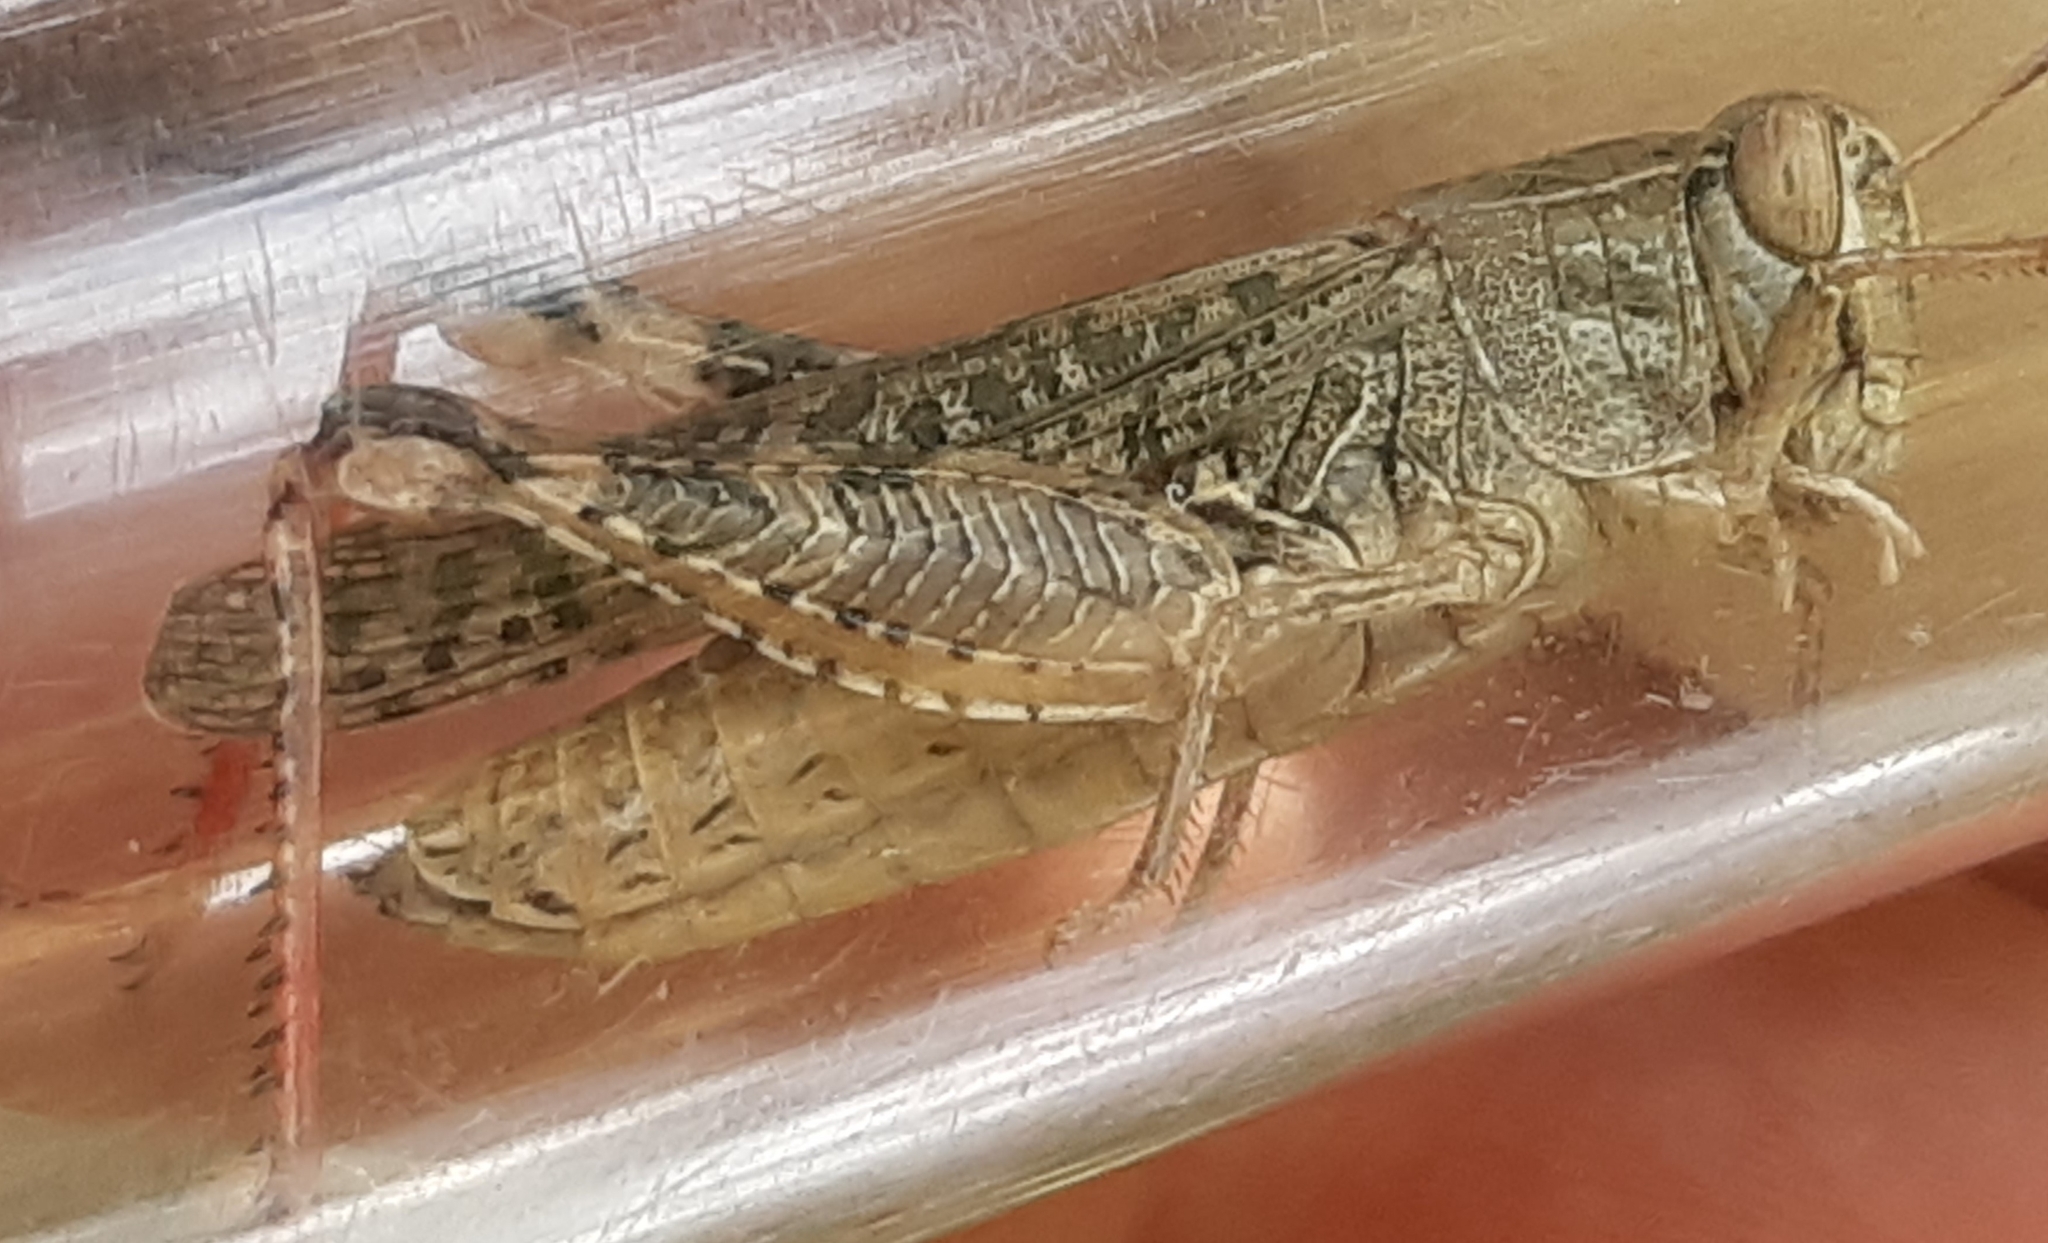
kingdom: Animalia
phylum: Arthropoda
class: Insecta
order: Orthoptera
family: Acrididae
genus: Calliptamus
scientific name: Calliptamus italicus
